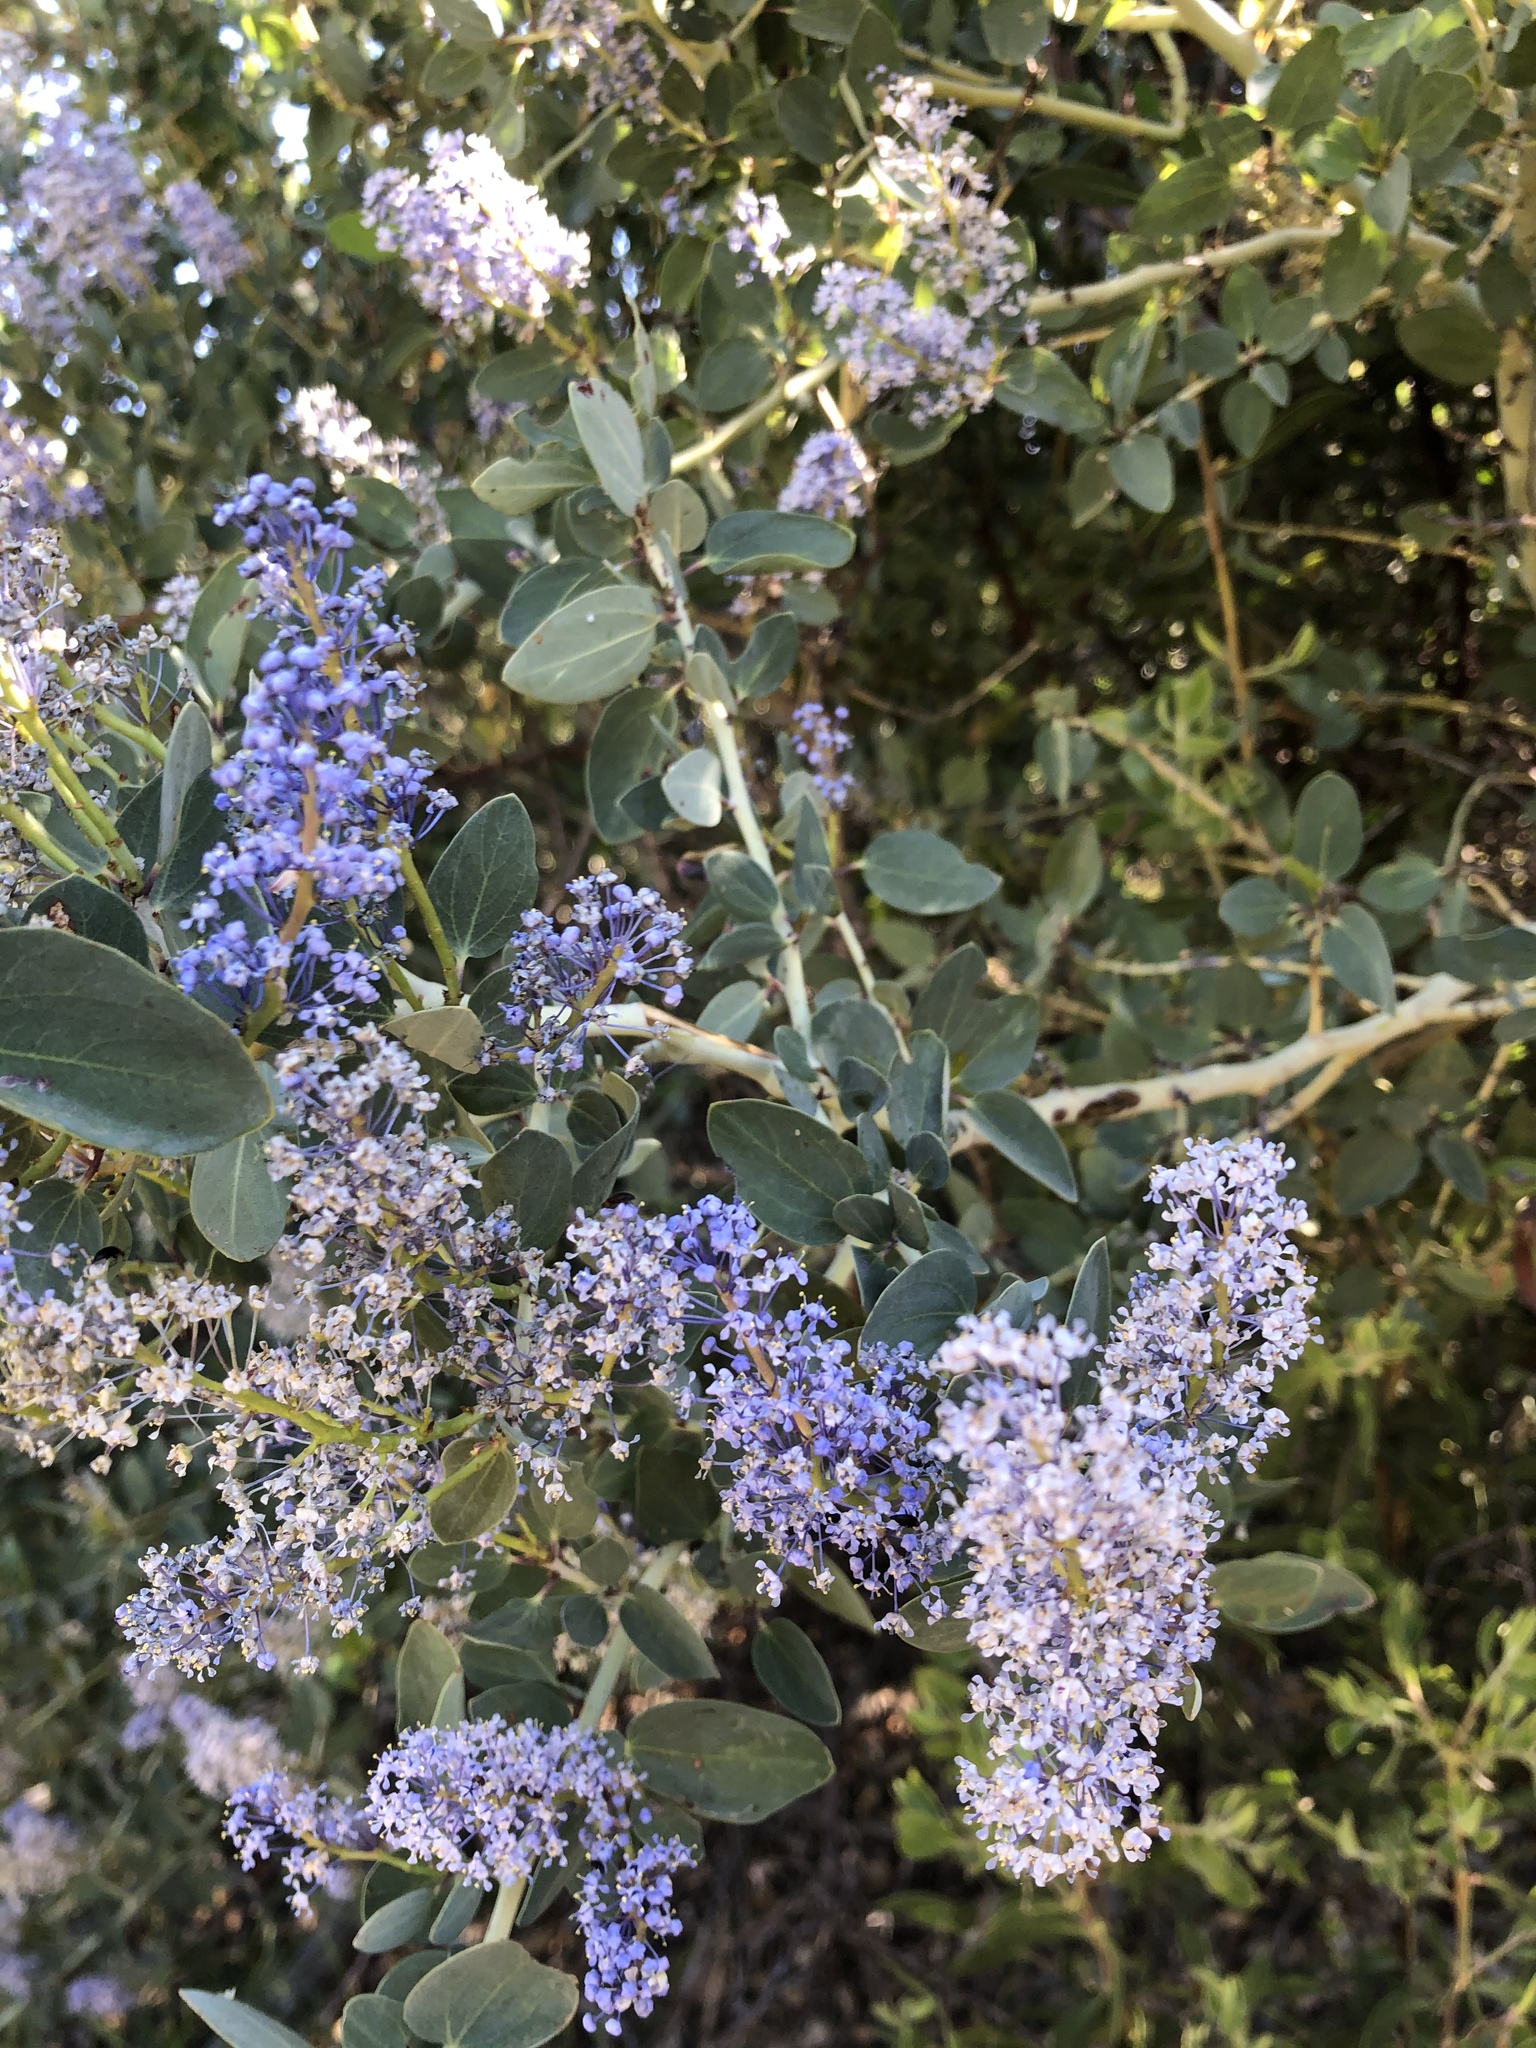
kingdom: Plantae
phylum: Tracheophyta
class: Magnoliopsida
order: Rosales
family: Rhamnaceae
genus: Ceanothus
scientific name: Ceanothus leucodermis
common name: Chaparral whitethorn
